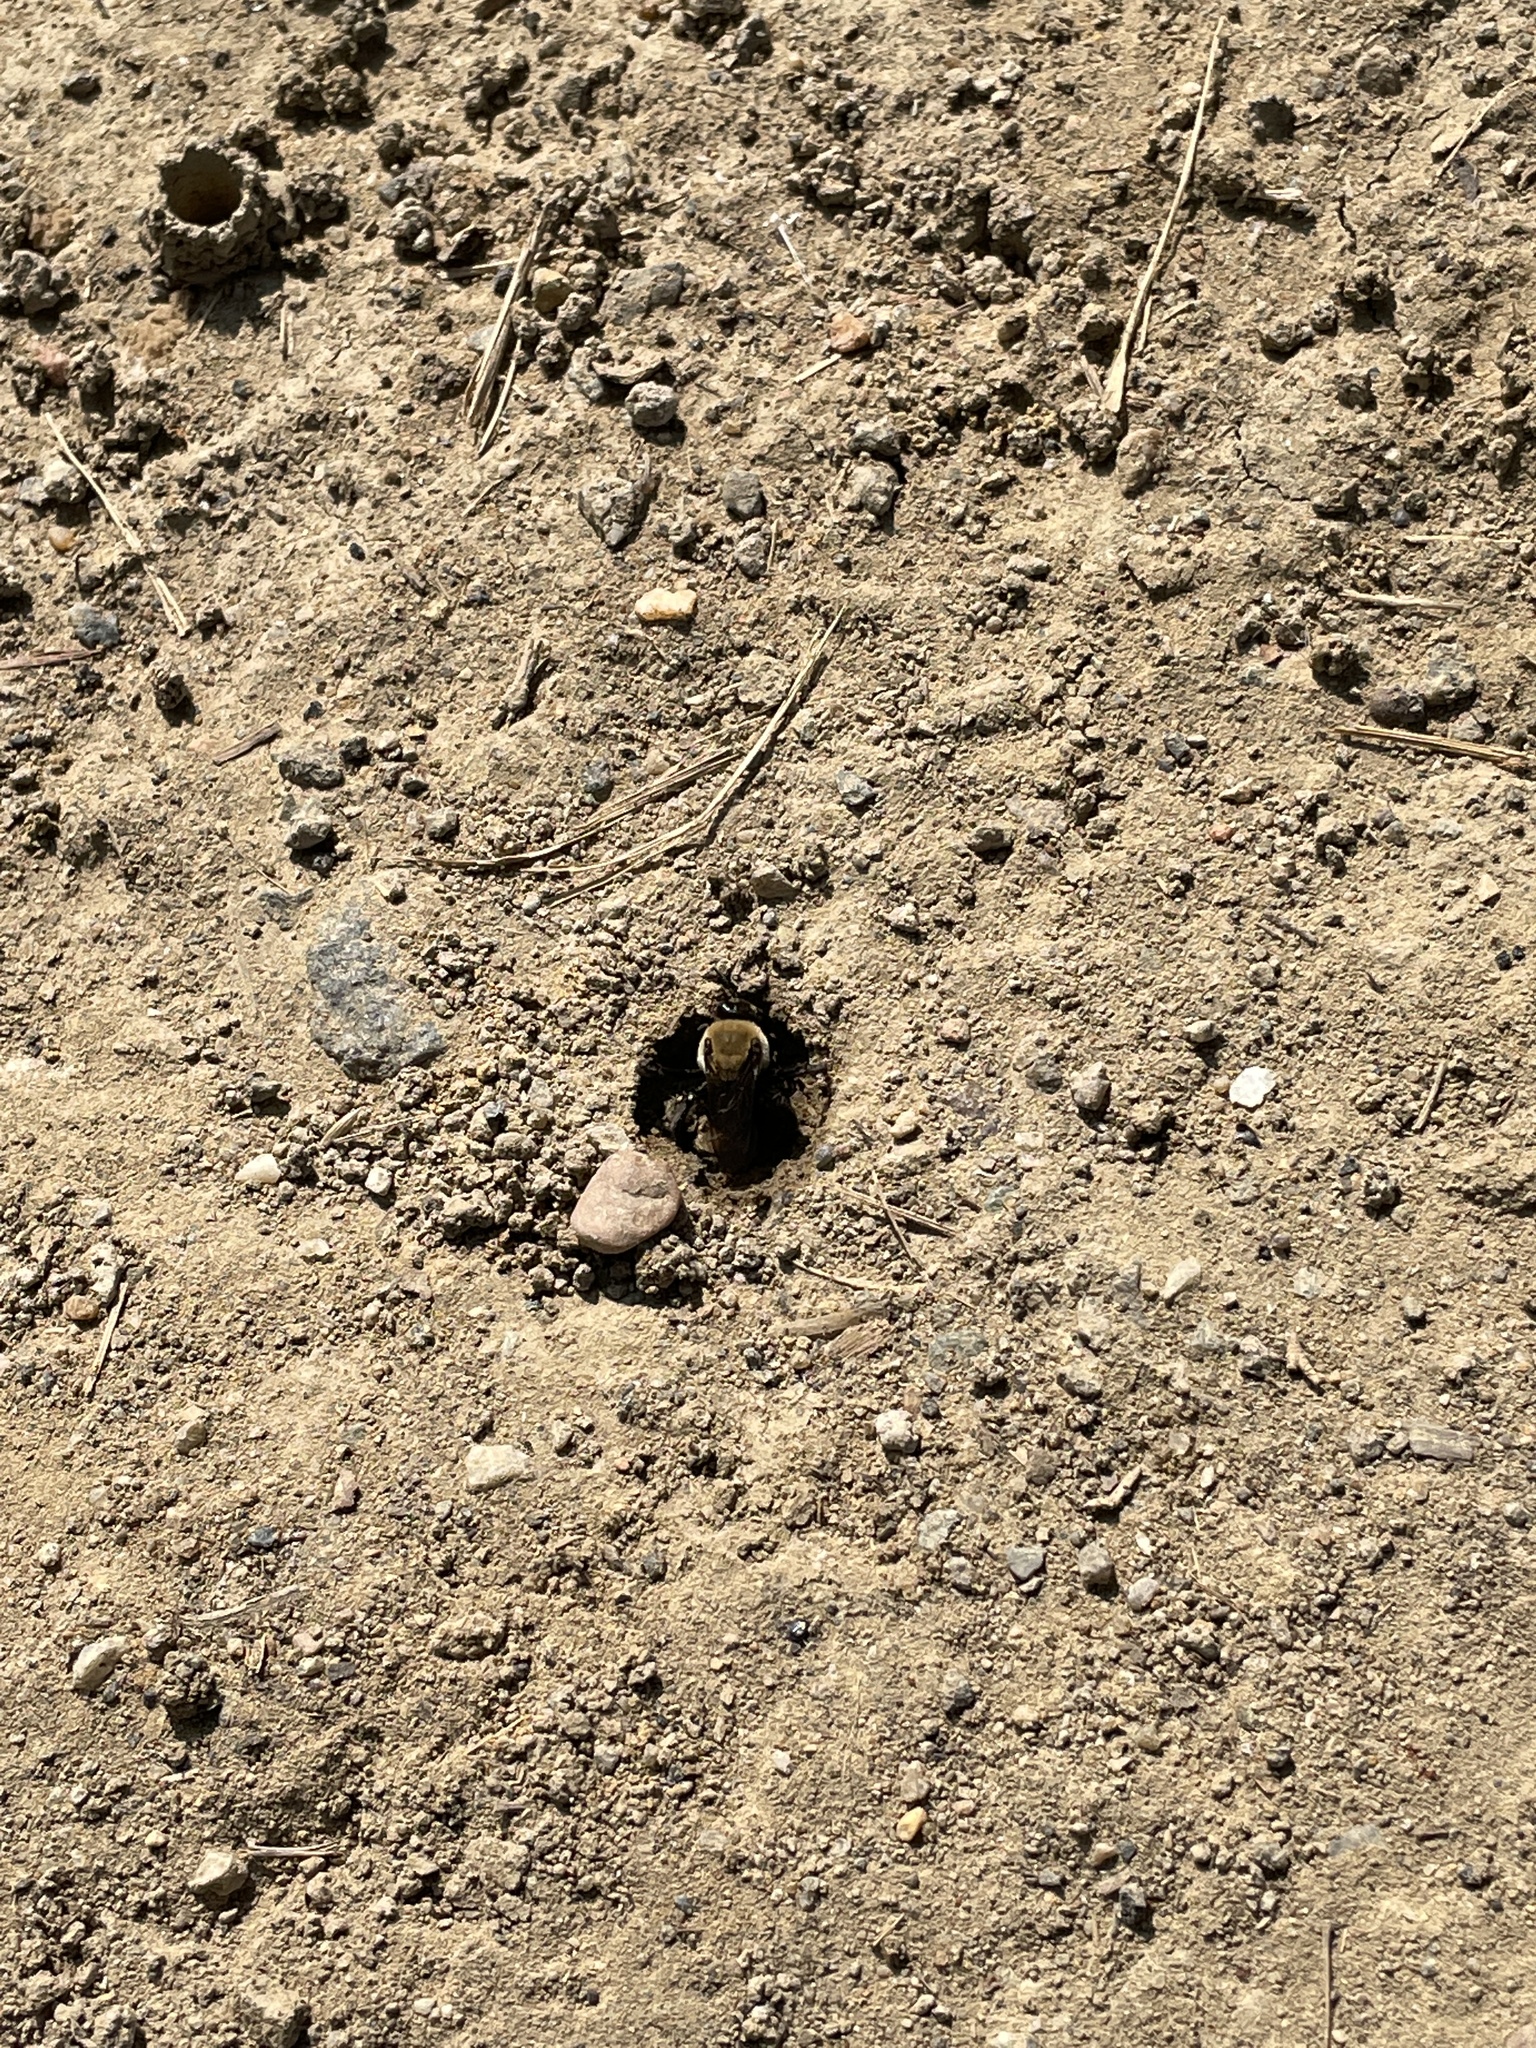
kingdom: Animalia
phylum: Arthropoda
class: Insecta
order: Hymenoptera
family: Apidae
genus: Ptilothrix
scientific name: Ptilothrix bombiformis
